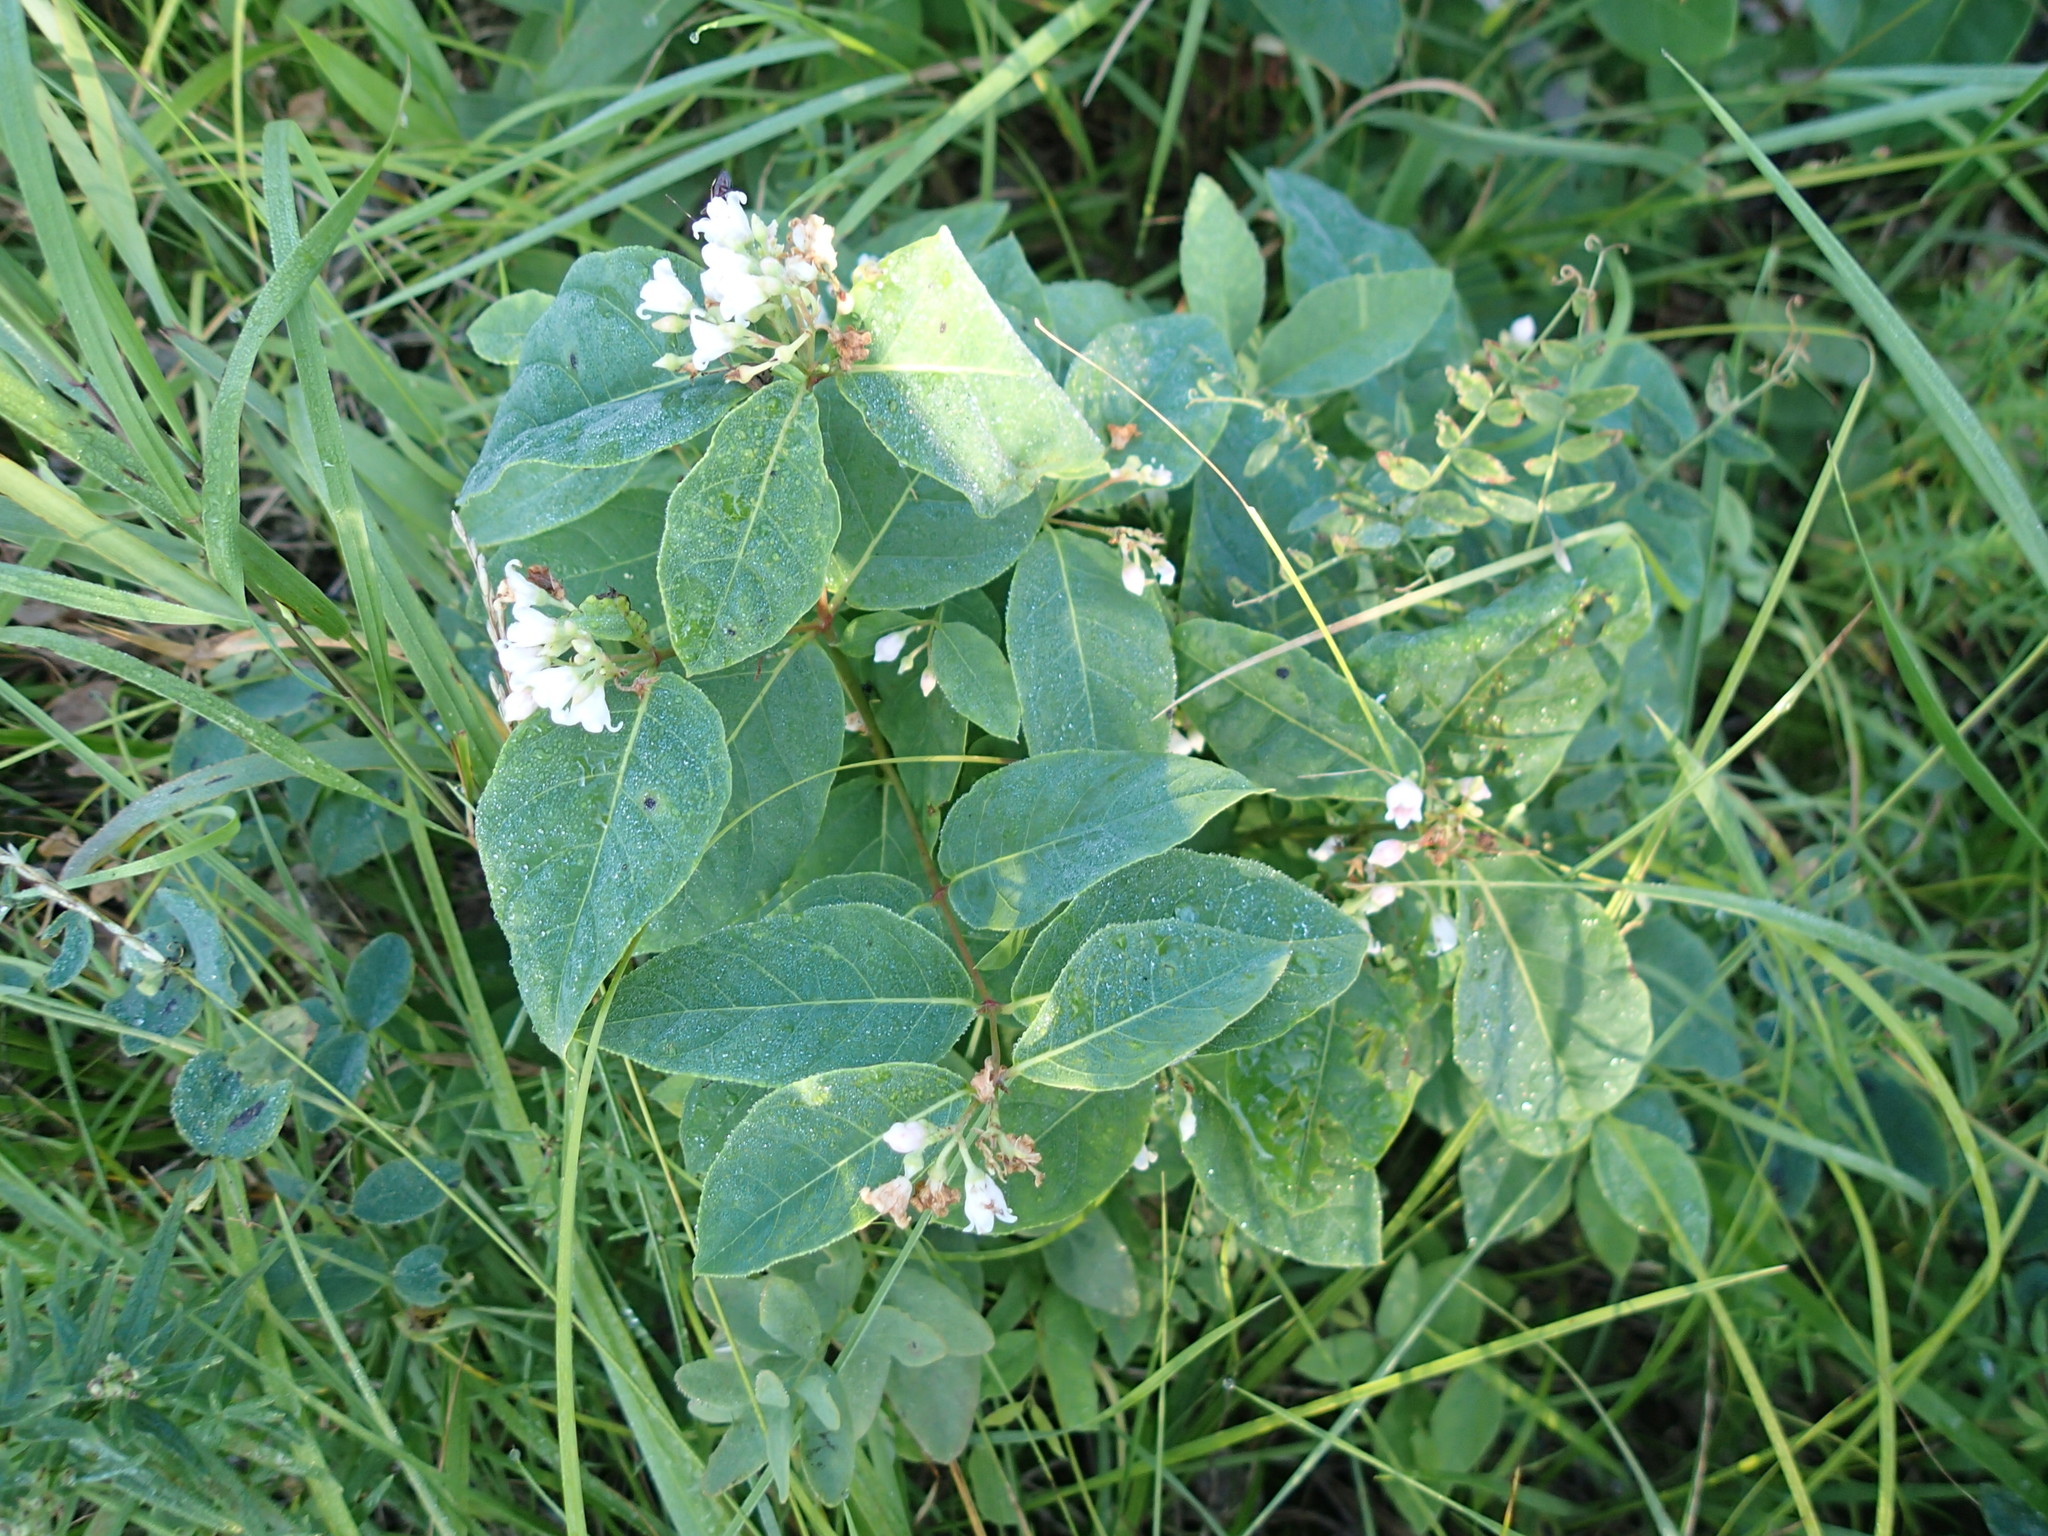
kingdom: Plantae
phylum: Tracheophyta
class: Magnoliopsida
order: Gentianales
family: Apocynaceae
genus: Apocynum
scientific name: Apocynum androsaemifolium
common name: Spreading dogbane
